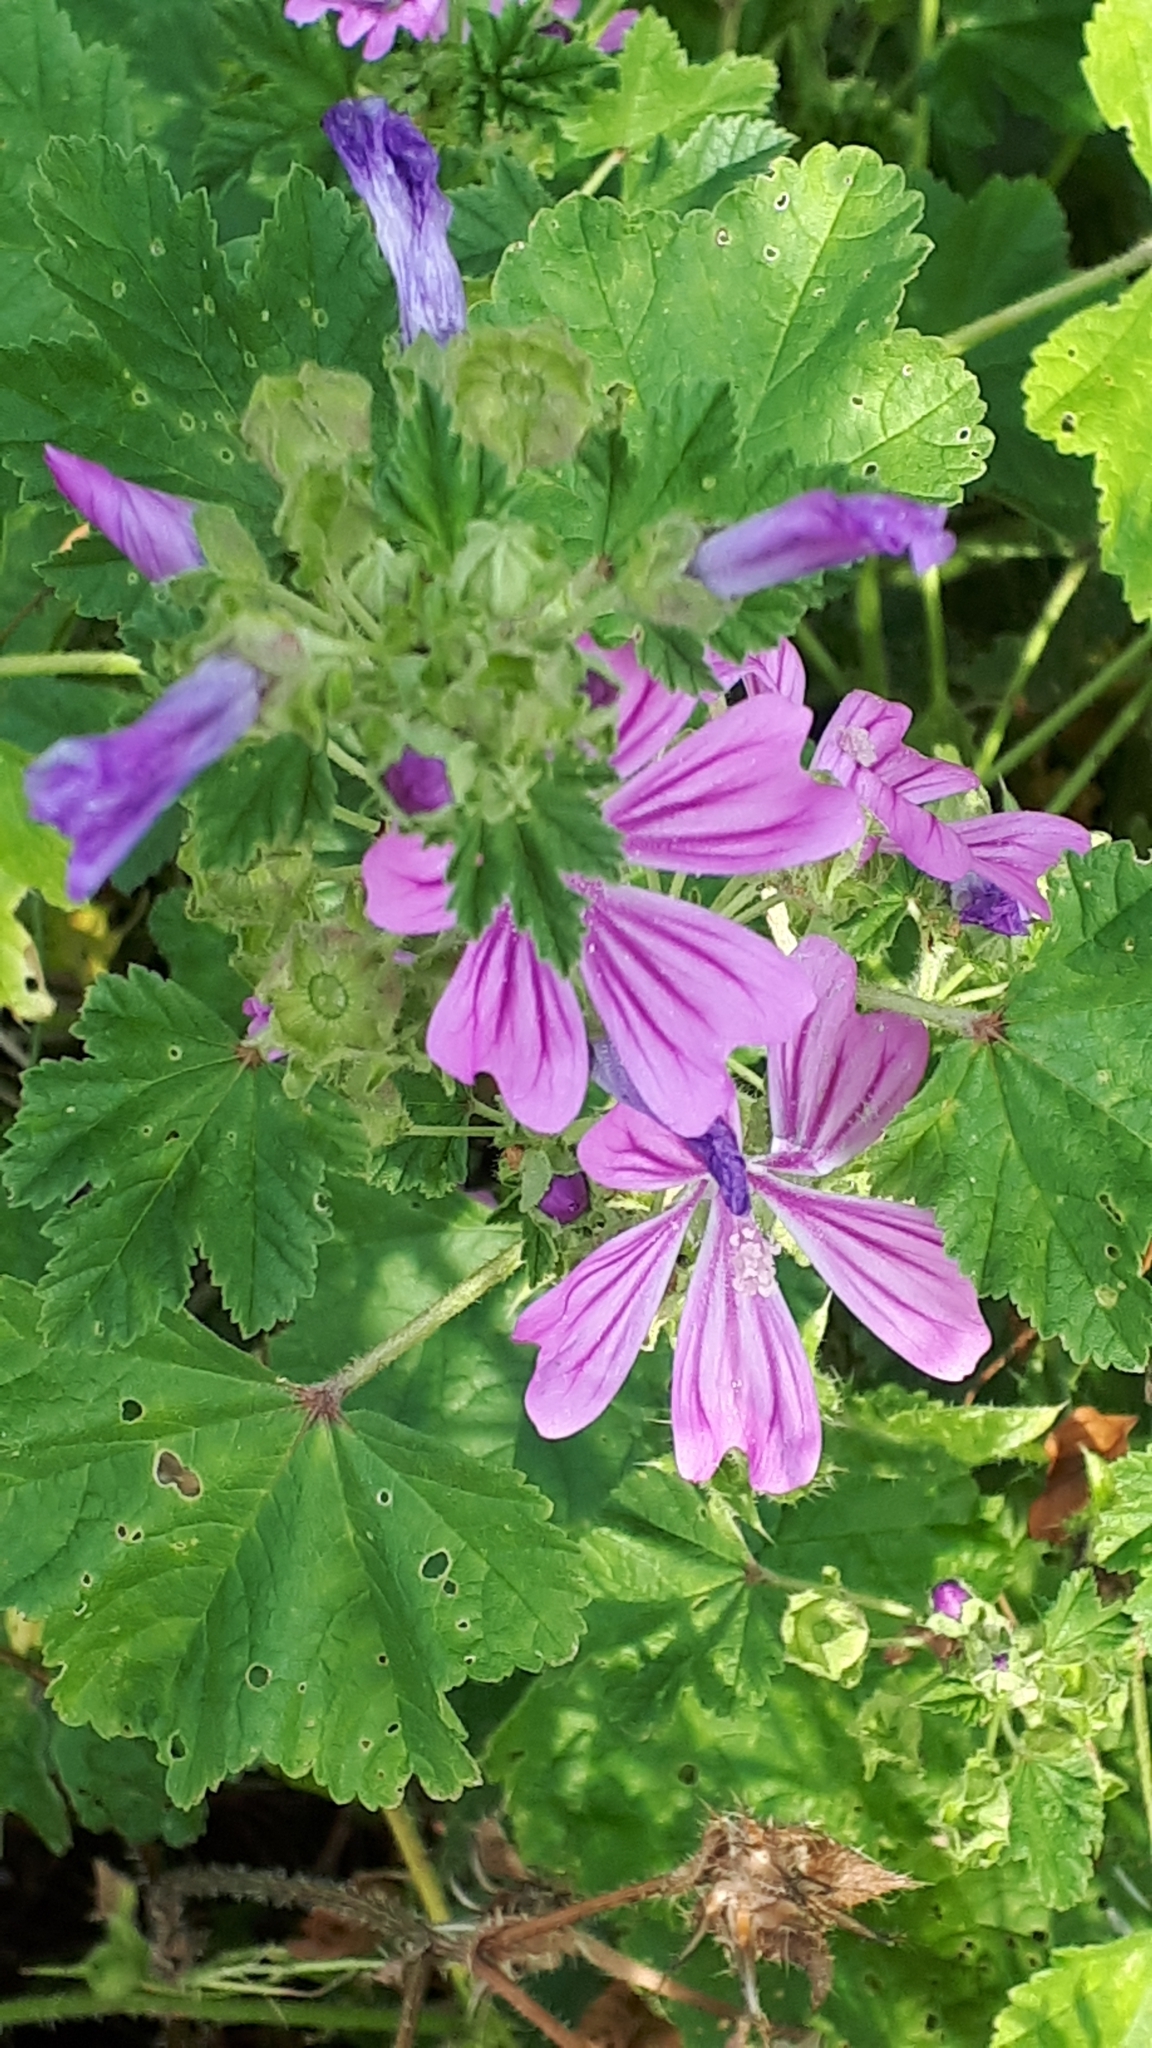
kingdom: Plantae
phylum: Tracheophyta
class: Magnoliopsida
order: Malvales
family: Malvaceae
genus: Malva
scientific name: Malva sylvestris
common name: Common mallow
